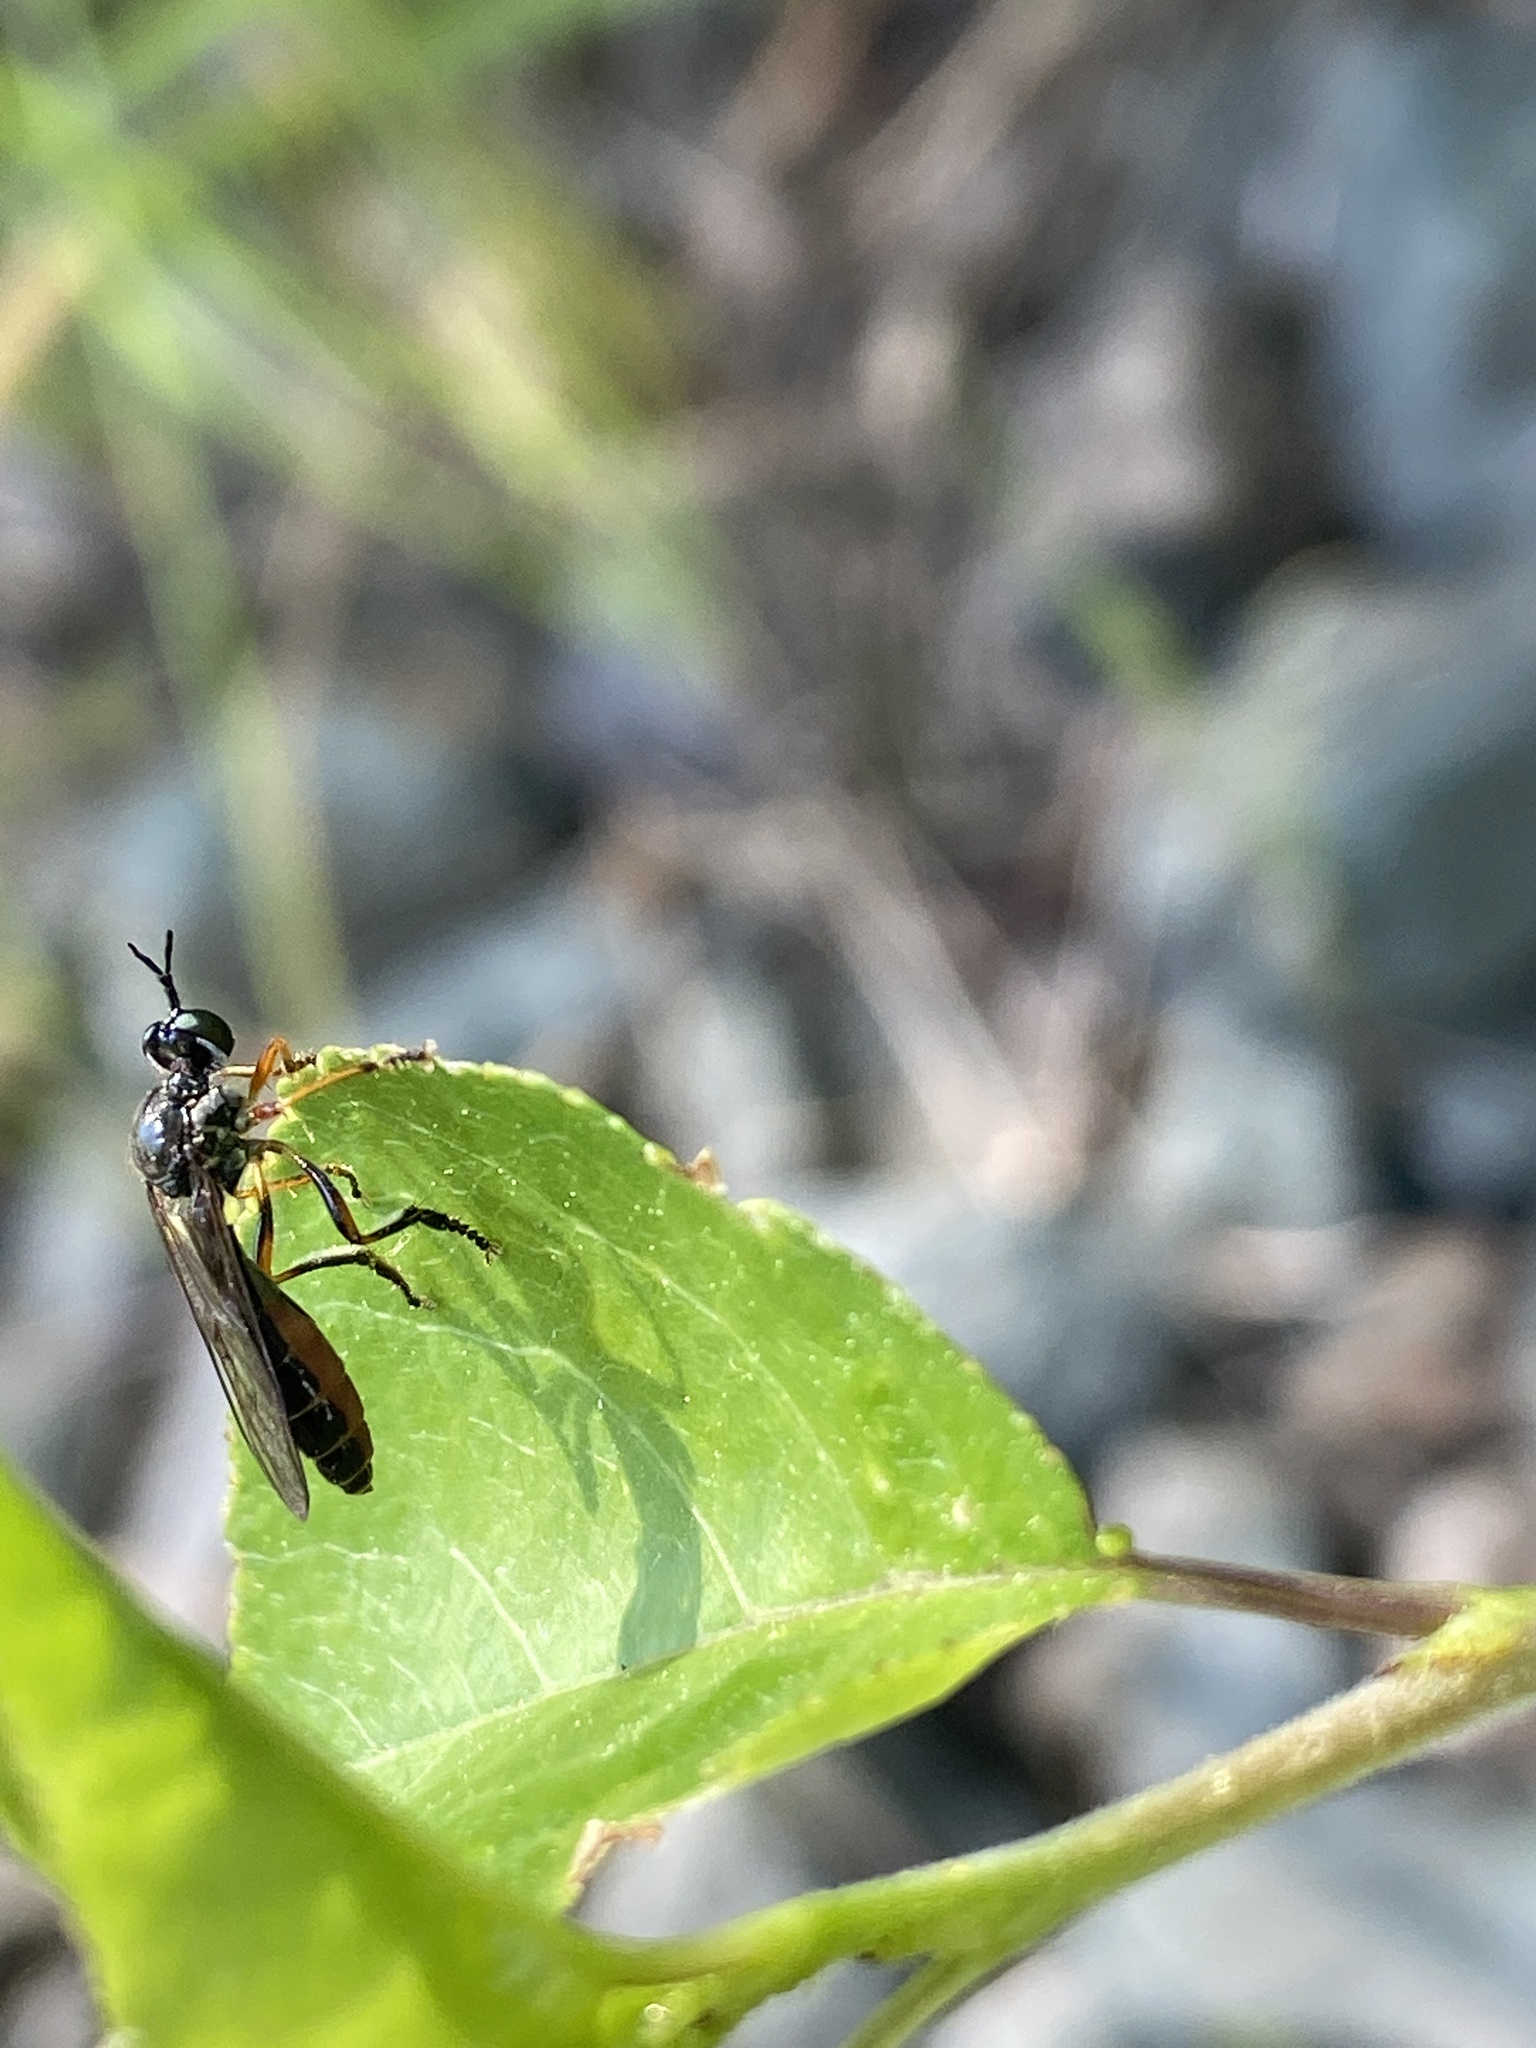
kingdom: Animalia
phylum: Arthropoda
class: Insecta
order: Diptera
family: Asilidae
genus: Dioctria
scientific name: Dioctria hyalipennis
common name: Stripe-legged robberfly
